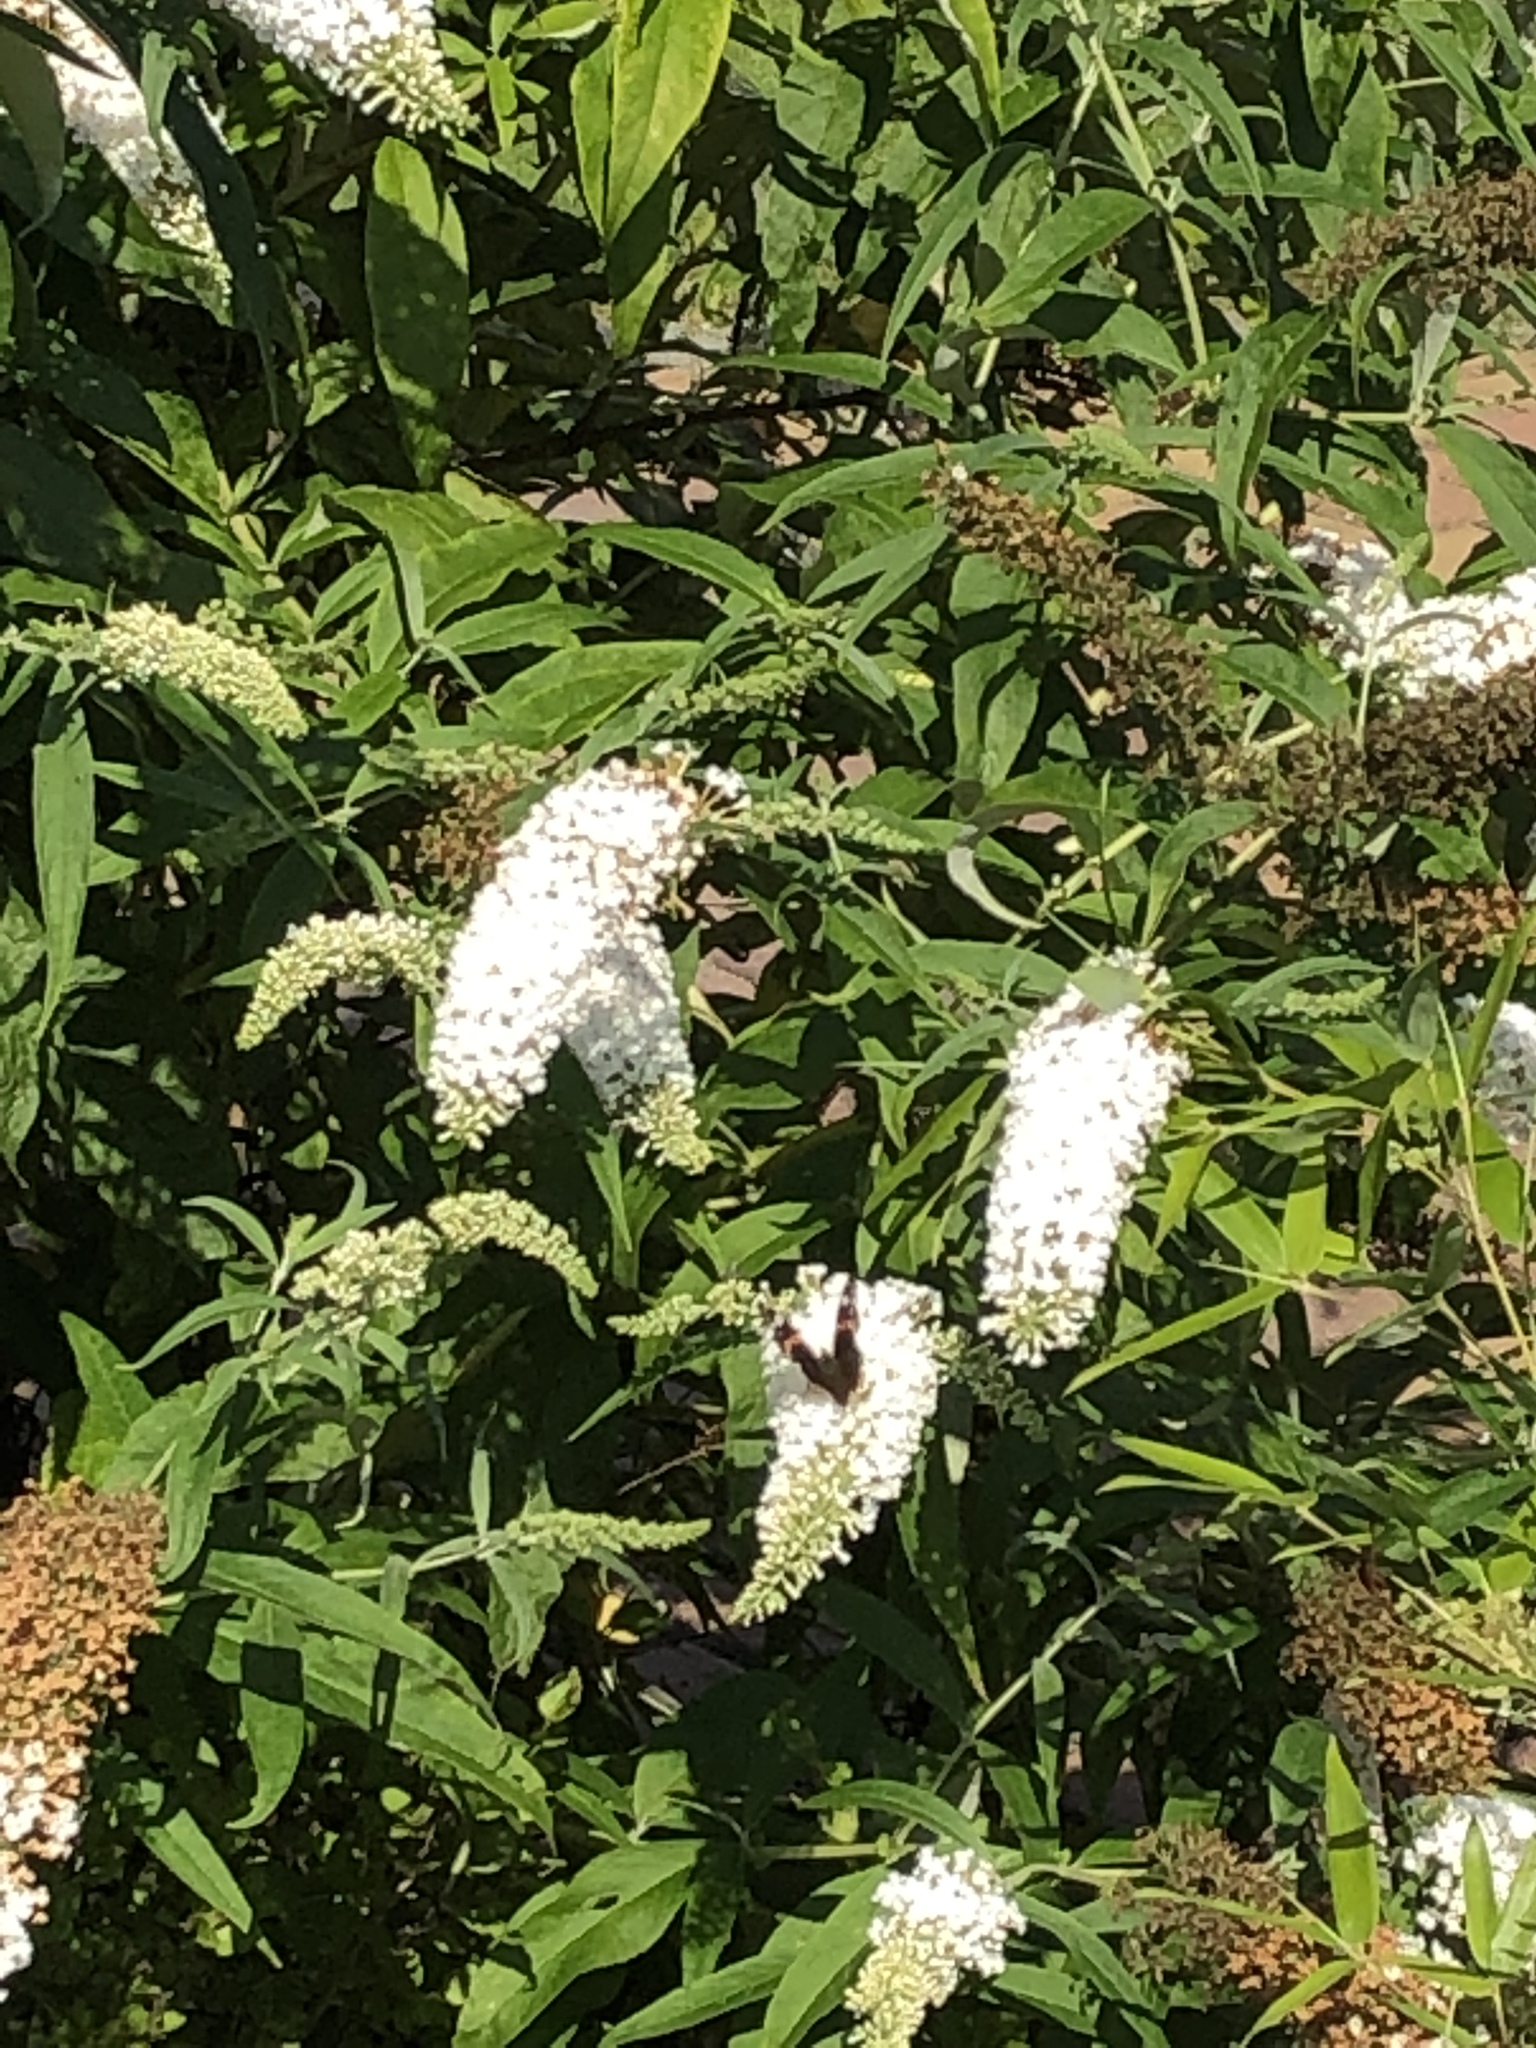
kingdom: Animalia
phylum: Arthropoda
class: Insecta
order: Lepidoptera
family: Nymphalidae
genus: Vanessa
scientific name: Vanessa atalanta
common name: Red admiral
